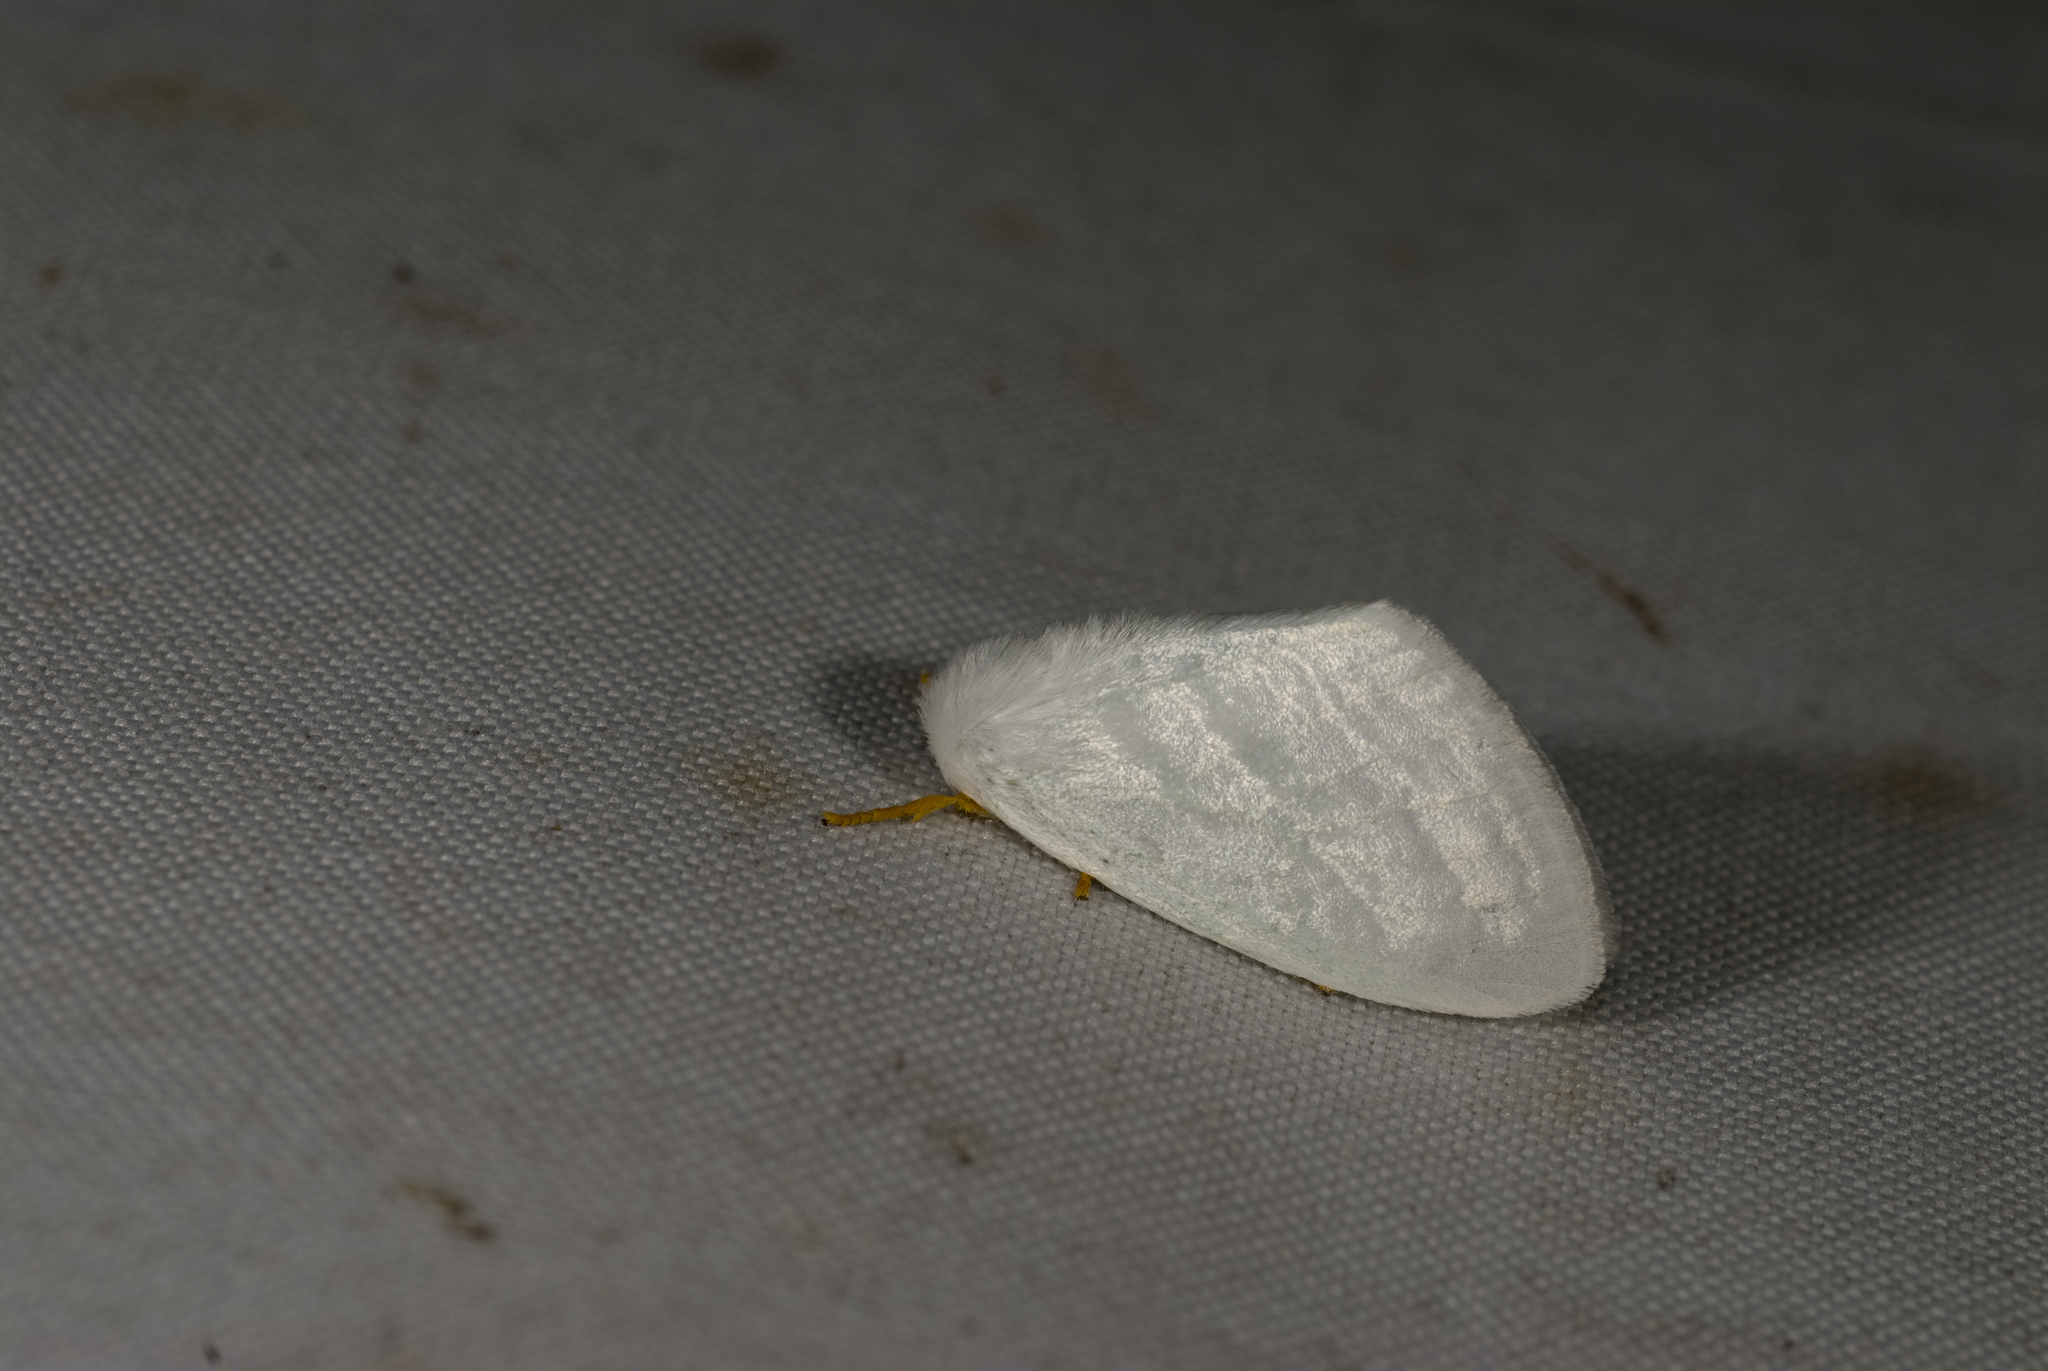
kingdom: Animalia
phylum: Arthropoda
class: Insecta
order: Lepidoptera
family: Erebidae
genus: Leucoma
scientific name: Leucoma clara
